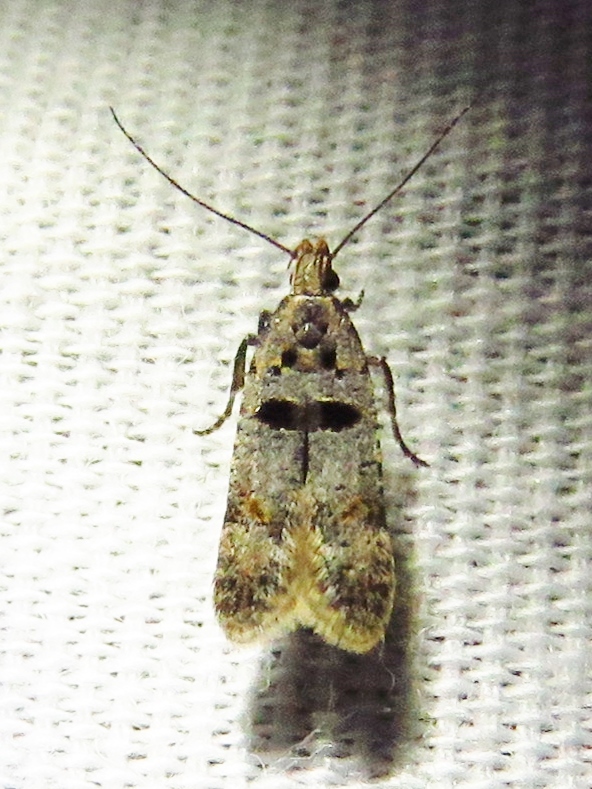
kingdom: Animalia
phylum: Arthropoda
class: Insecta
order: Lepidoptera
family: Gelechiidae
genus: Deltophora
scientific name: Deltophora glandiferella
